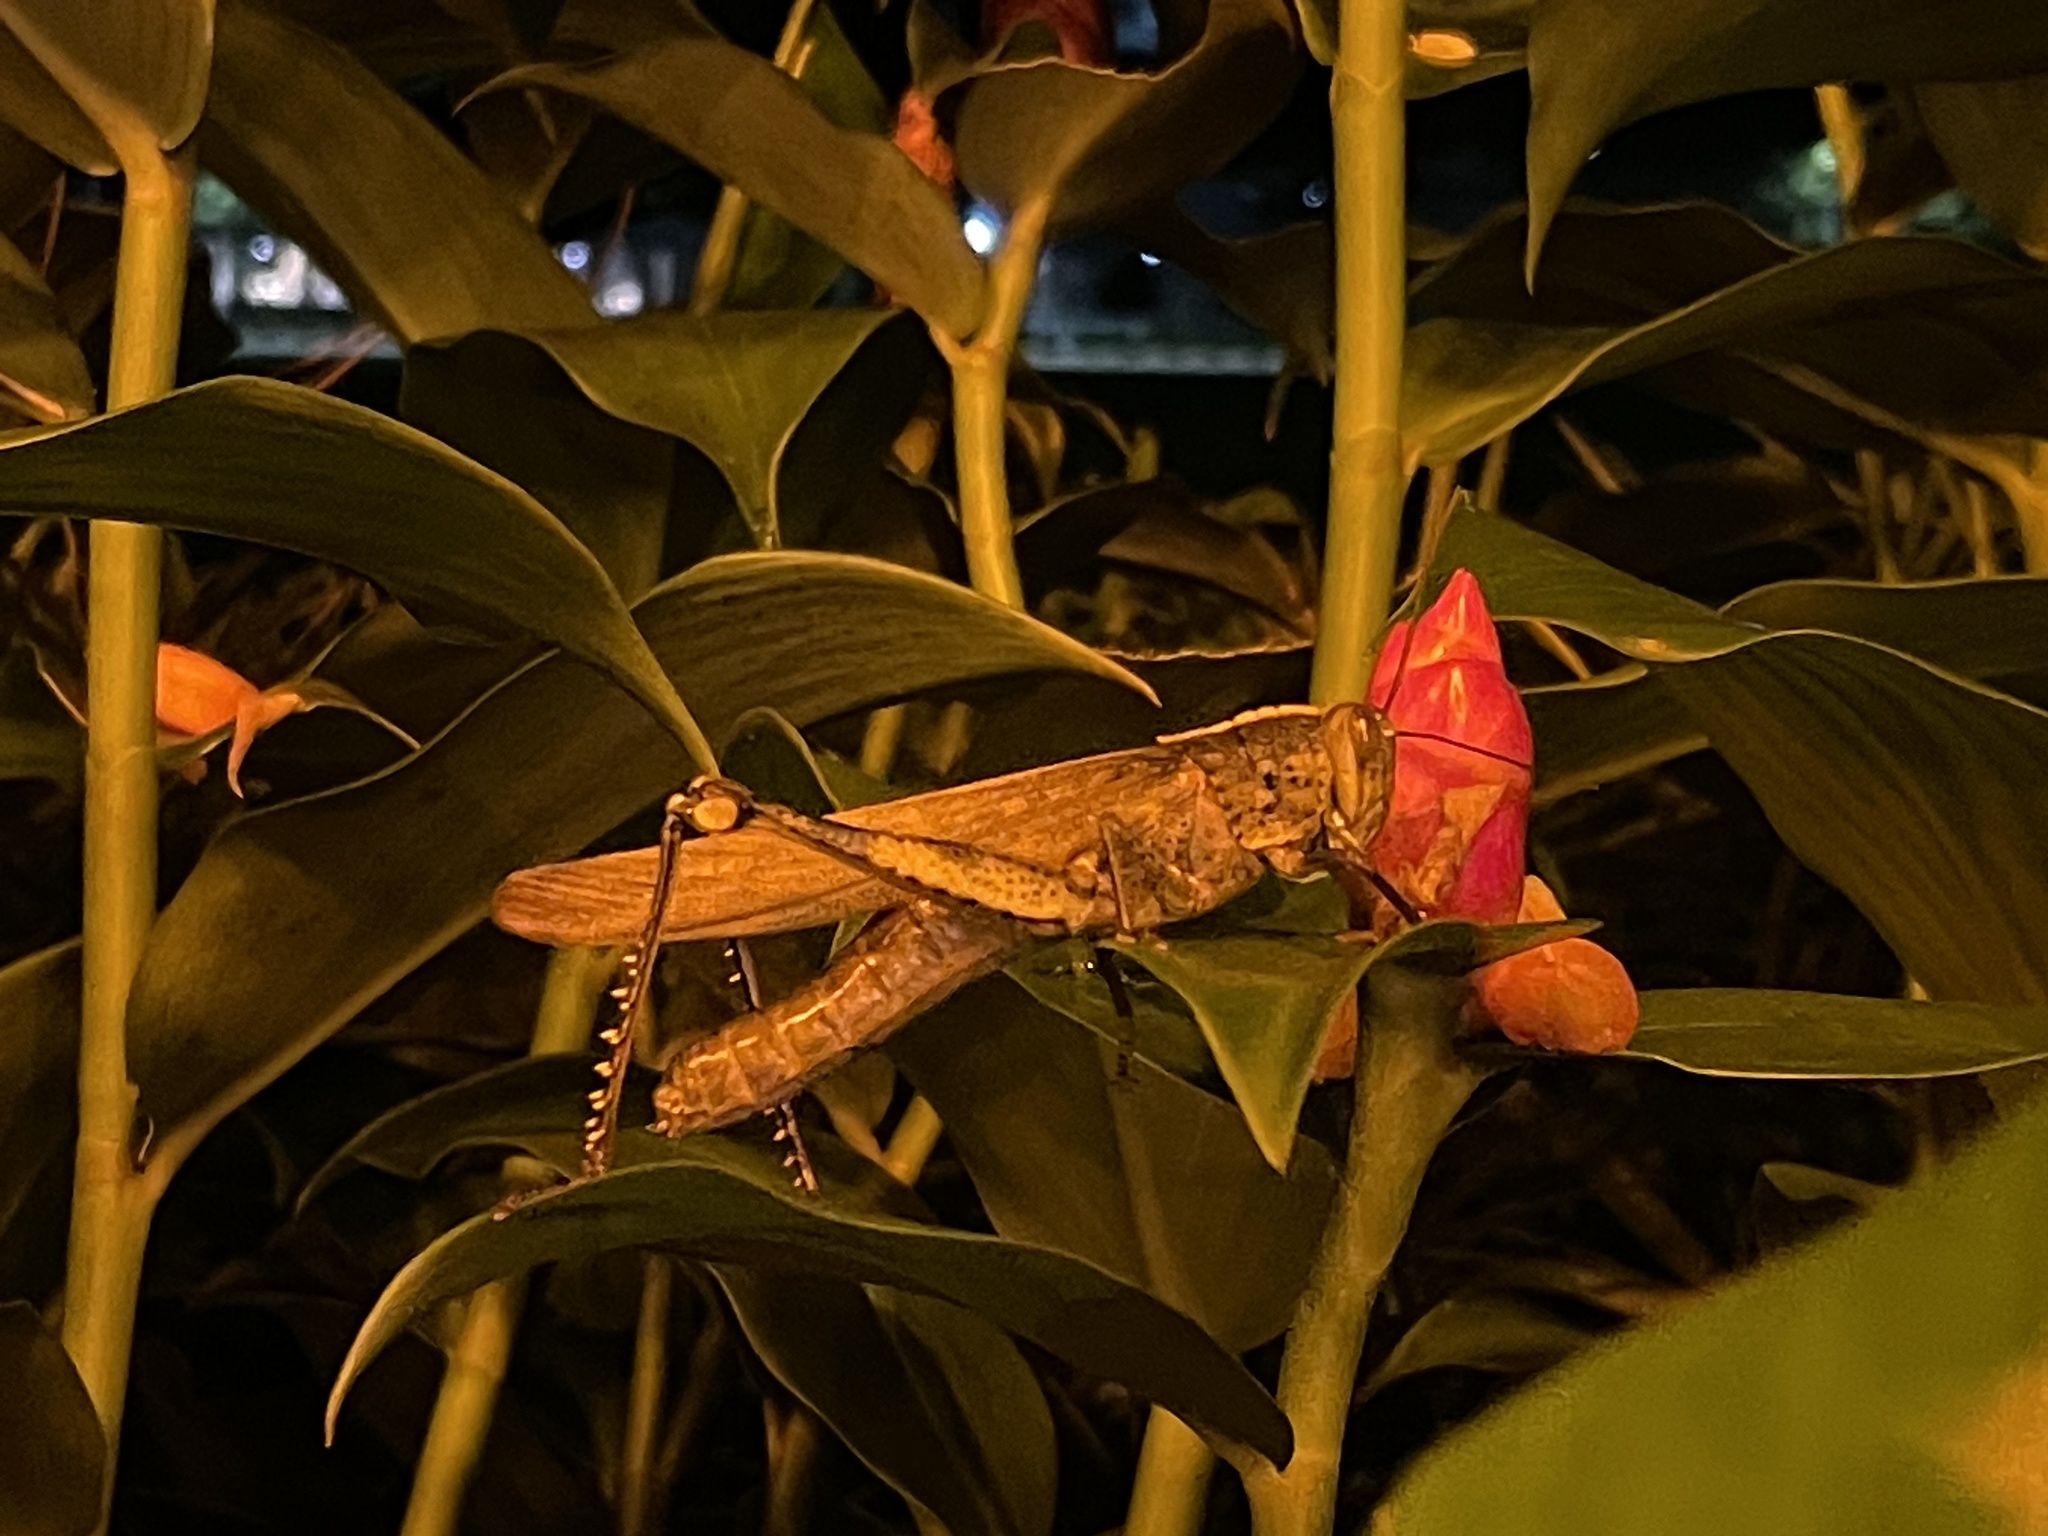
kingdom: Animalia
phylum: Arthropoda
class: Insecta
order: Orthoptera
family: Acrididae
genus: Valanga
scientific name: Valanga nigricornis
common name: Javanese bird grasshopper
